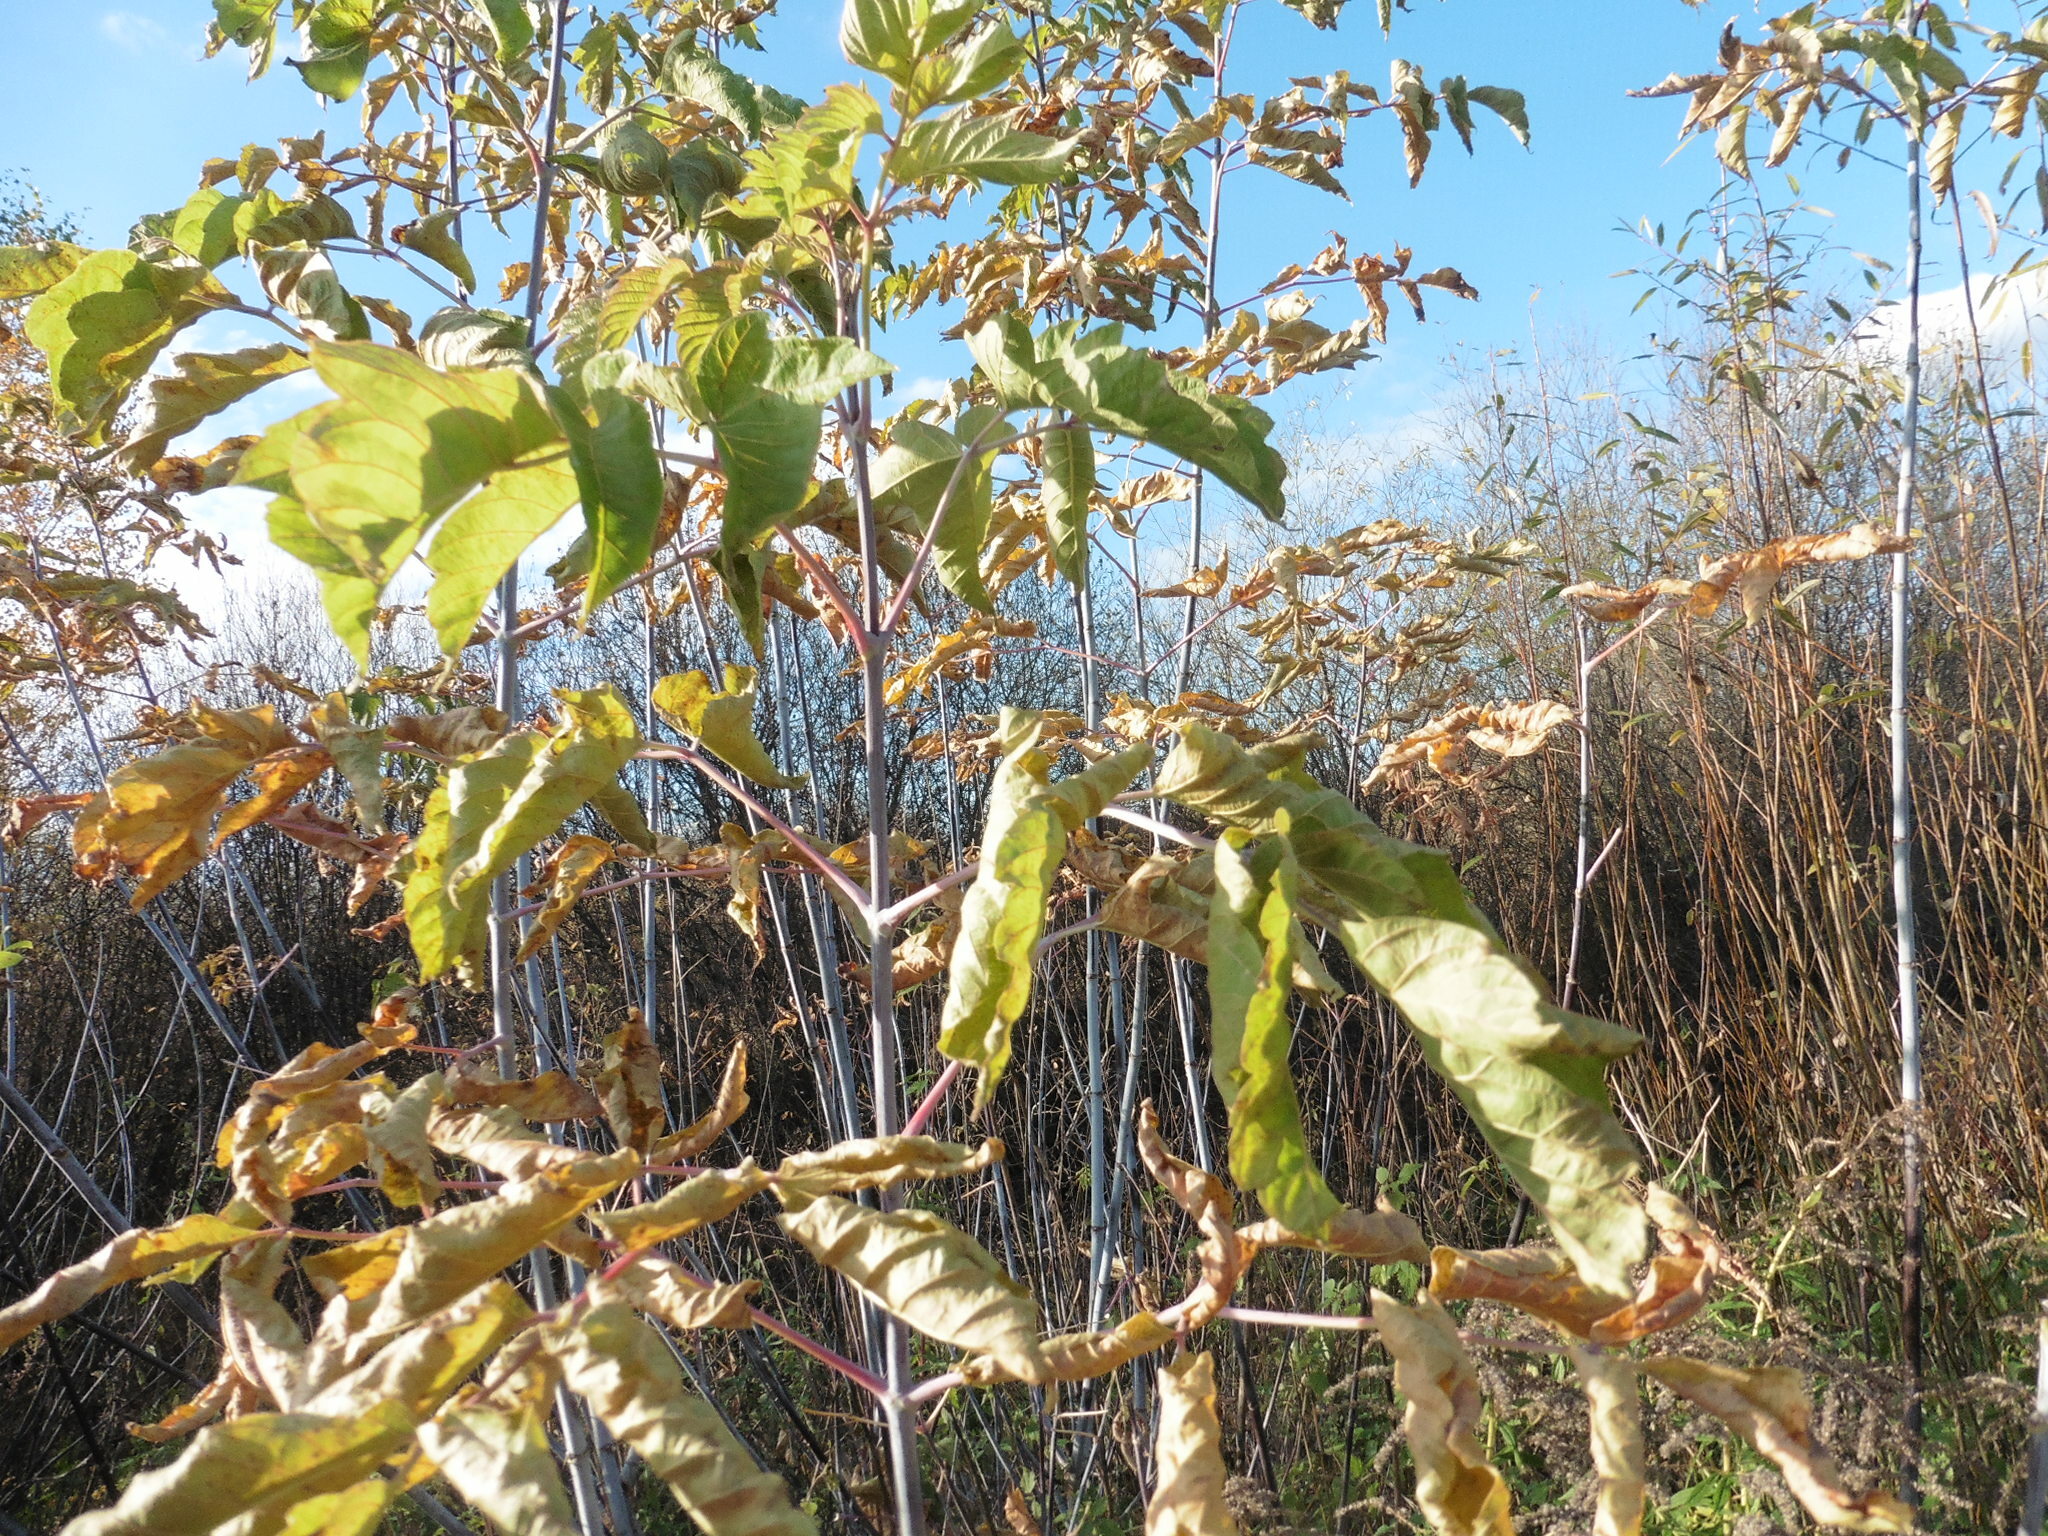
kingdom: Plantae
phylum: Tracheophyta
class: Magnoliopsida
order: Sapindales
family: Sapindaceae
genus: Acer
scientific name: Acer negundo
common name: Ashleaf maple
